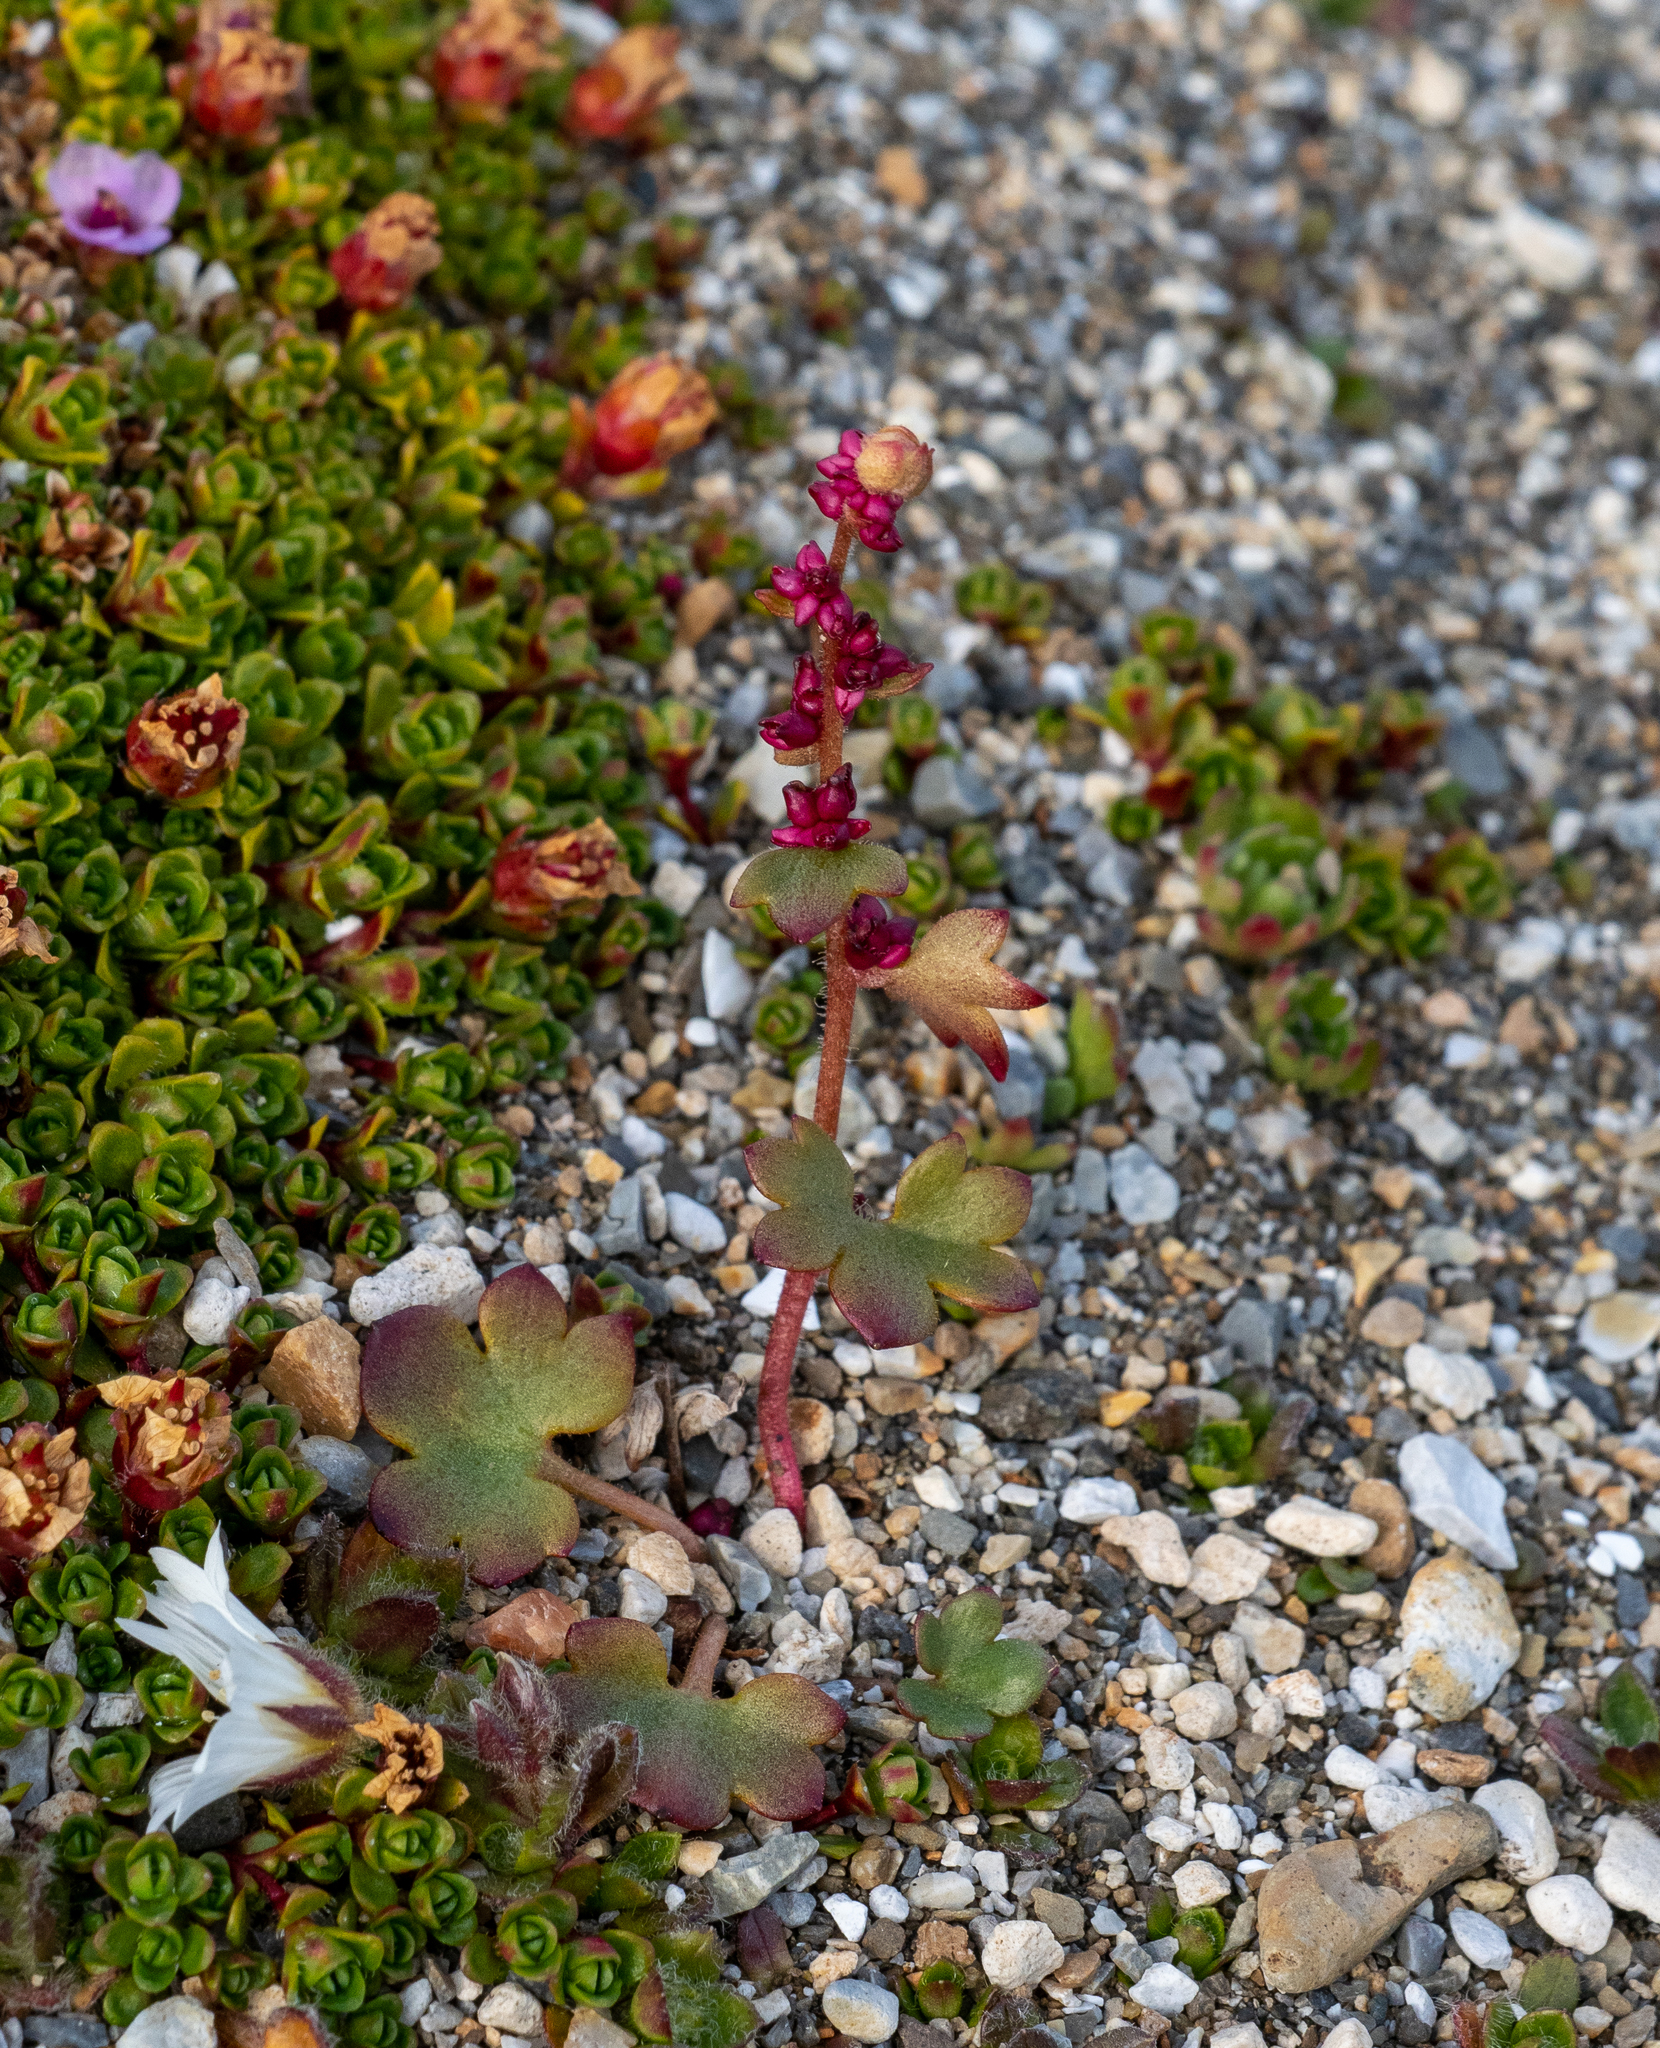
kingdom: Plantae
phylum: Tracheophyta
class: Magnoliopsida
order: Saxifragales
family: Saxifragaceae
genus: Saxifraga
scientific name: Saxifraga cernua
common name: Drooping saxifrage
